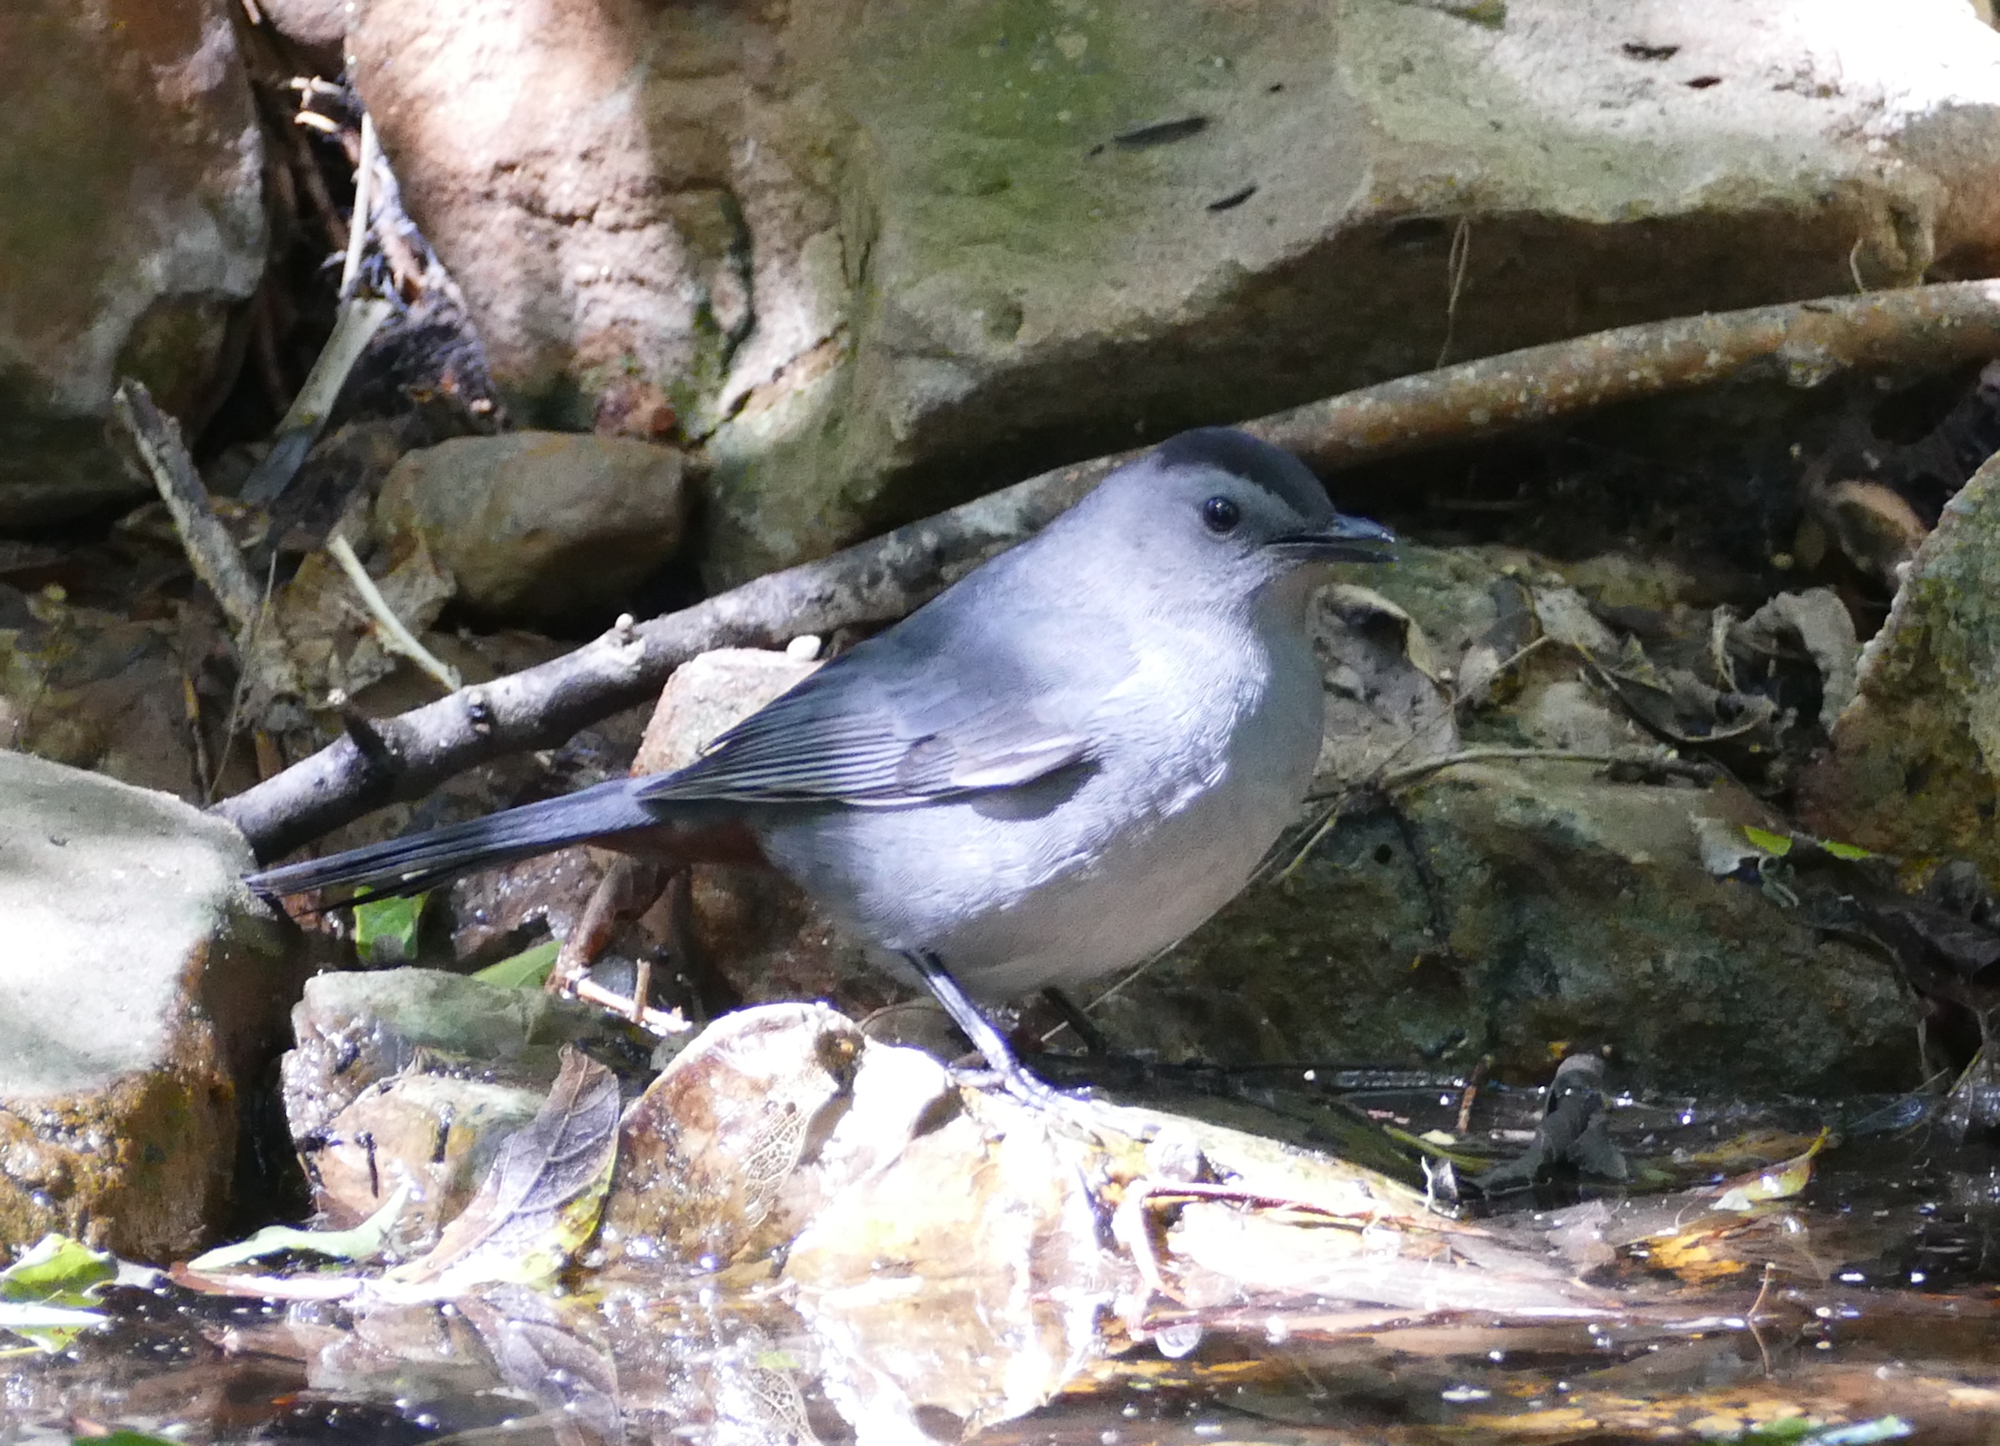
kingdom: Animalia
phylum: Chordata
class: Aves
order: Passeriformes
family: Mimidae
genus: Dumetella
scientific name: Dumetella carolinensis
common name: Gray catbird
